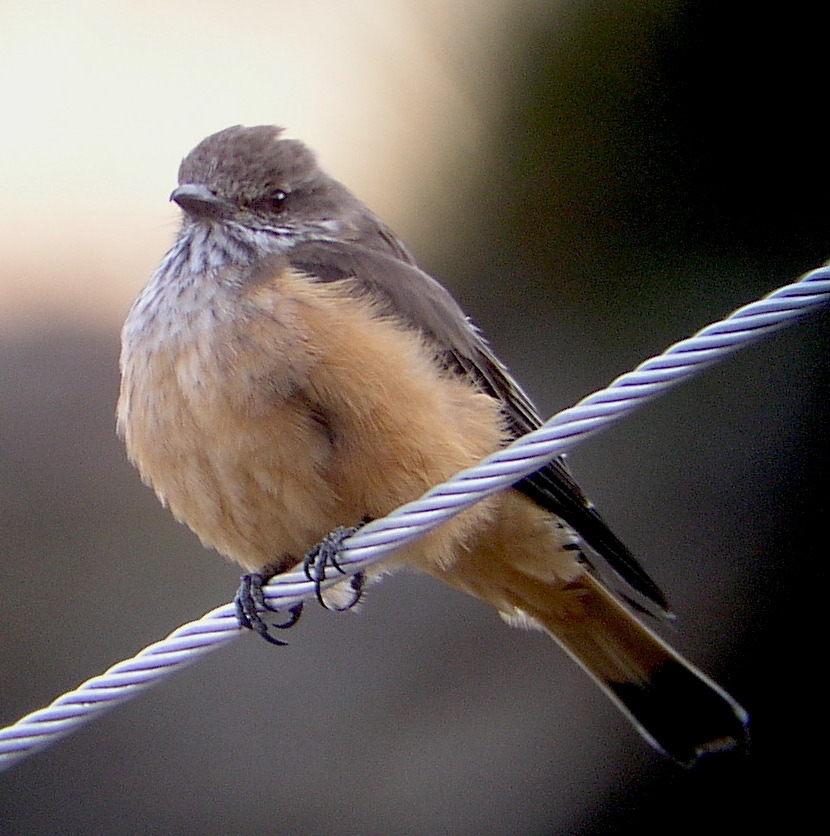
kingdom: Animalia
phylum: Chordata
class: Aves
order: Passeriformes
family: Tyrannidae
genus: Myiotheretes
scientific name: Myiotheretes striaticollis
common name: Streak-throated bush tyrant
